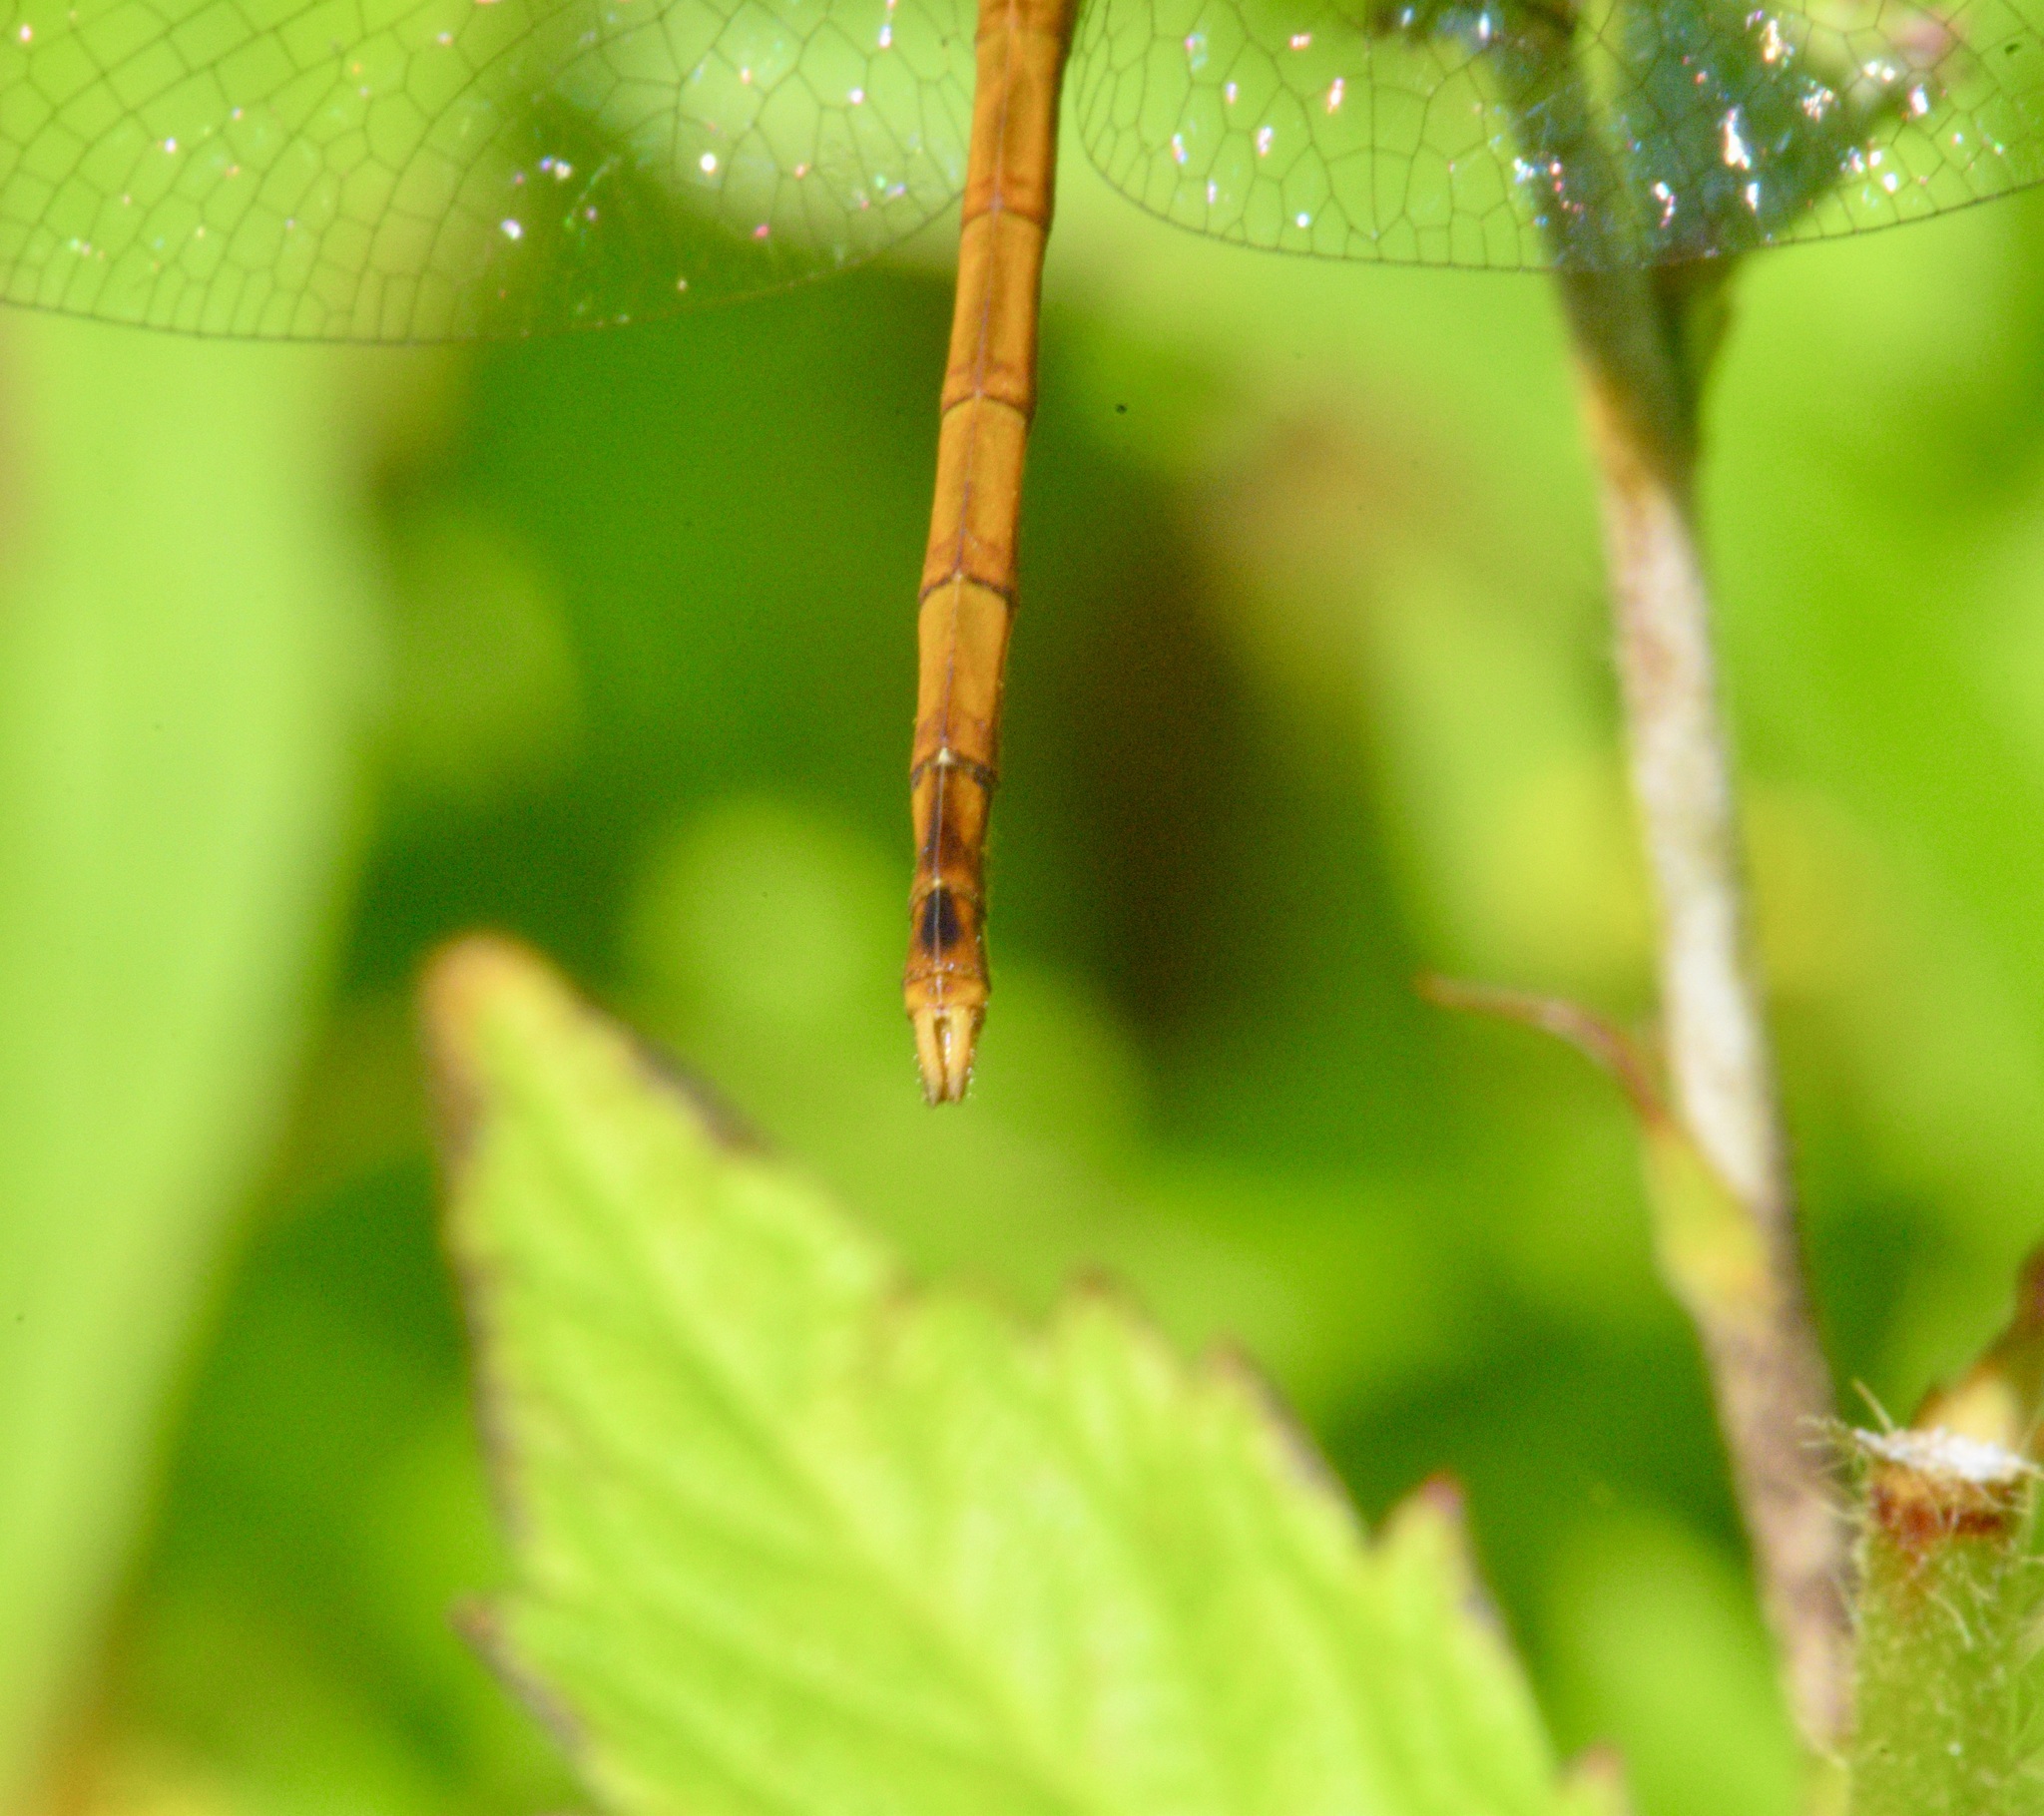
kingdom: Animalia
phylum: Arthropoda
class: Insecta
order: Odonata
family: Libellulidae
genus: Sympetrum
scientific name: Sympetrum vicinum
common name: Autumn meadowhawk
